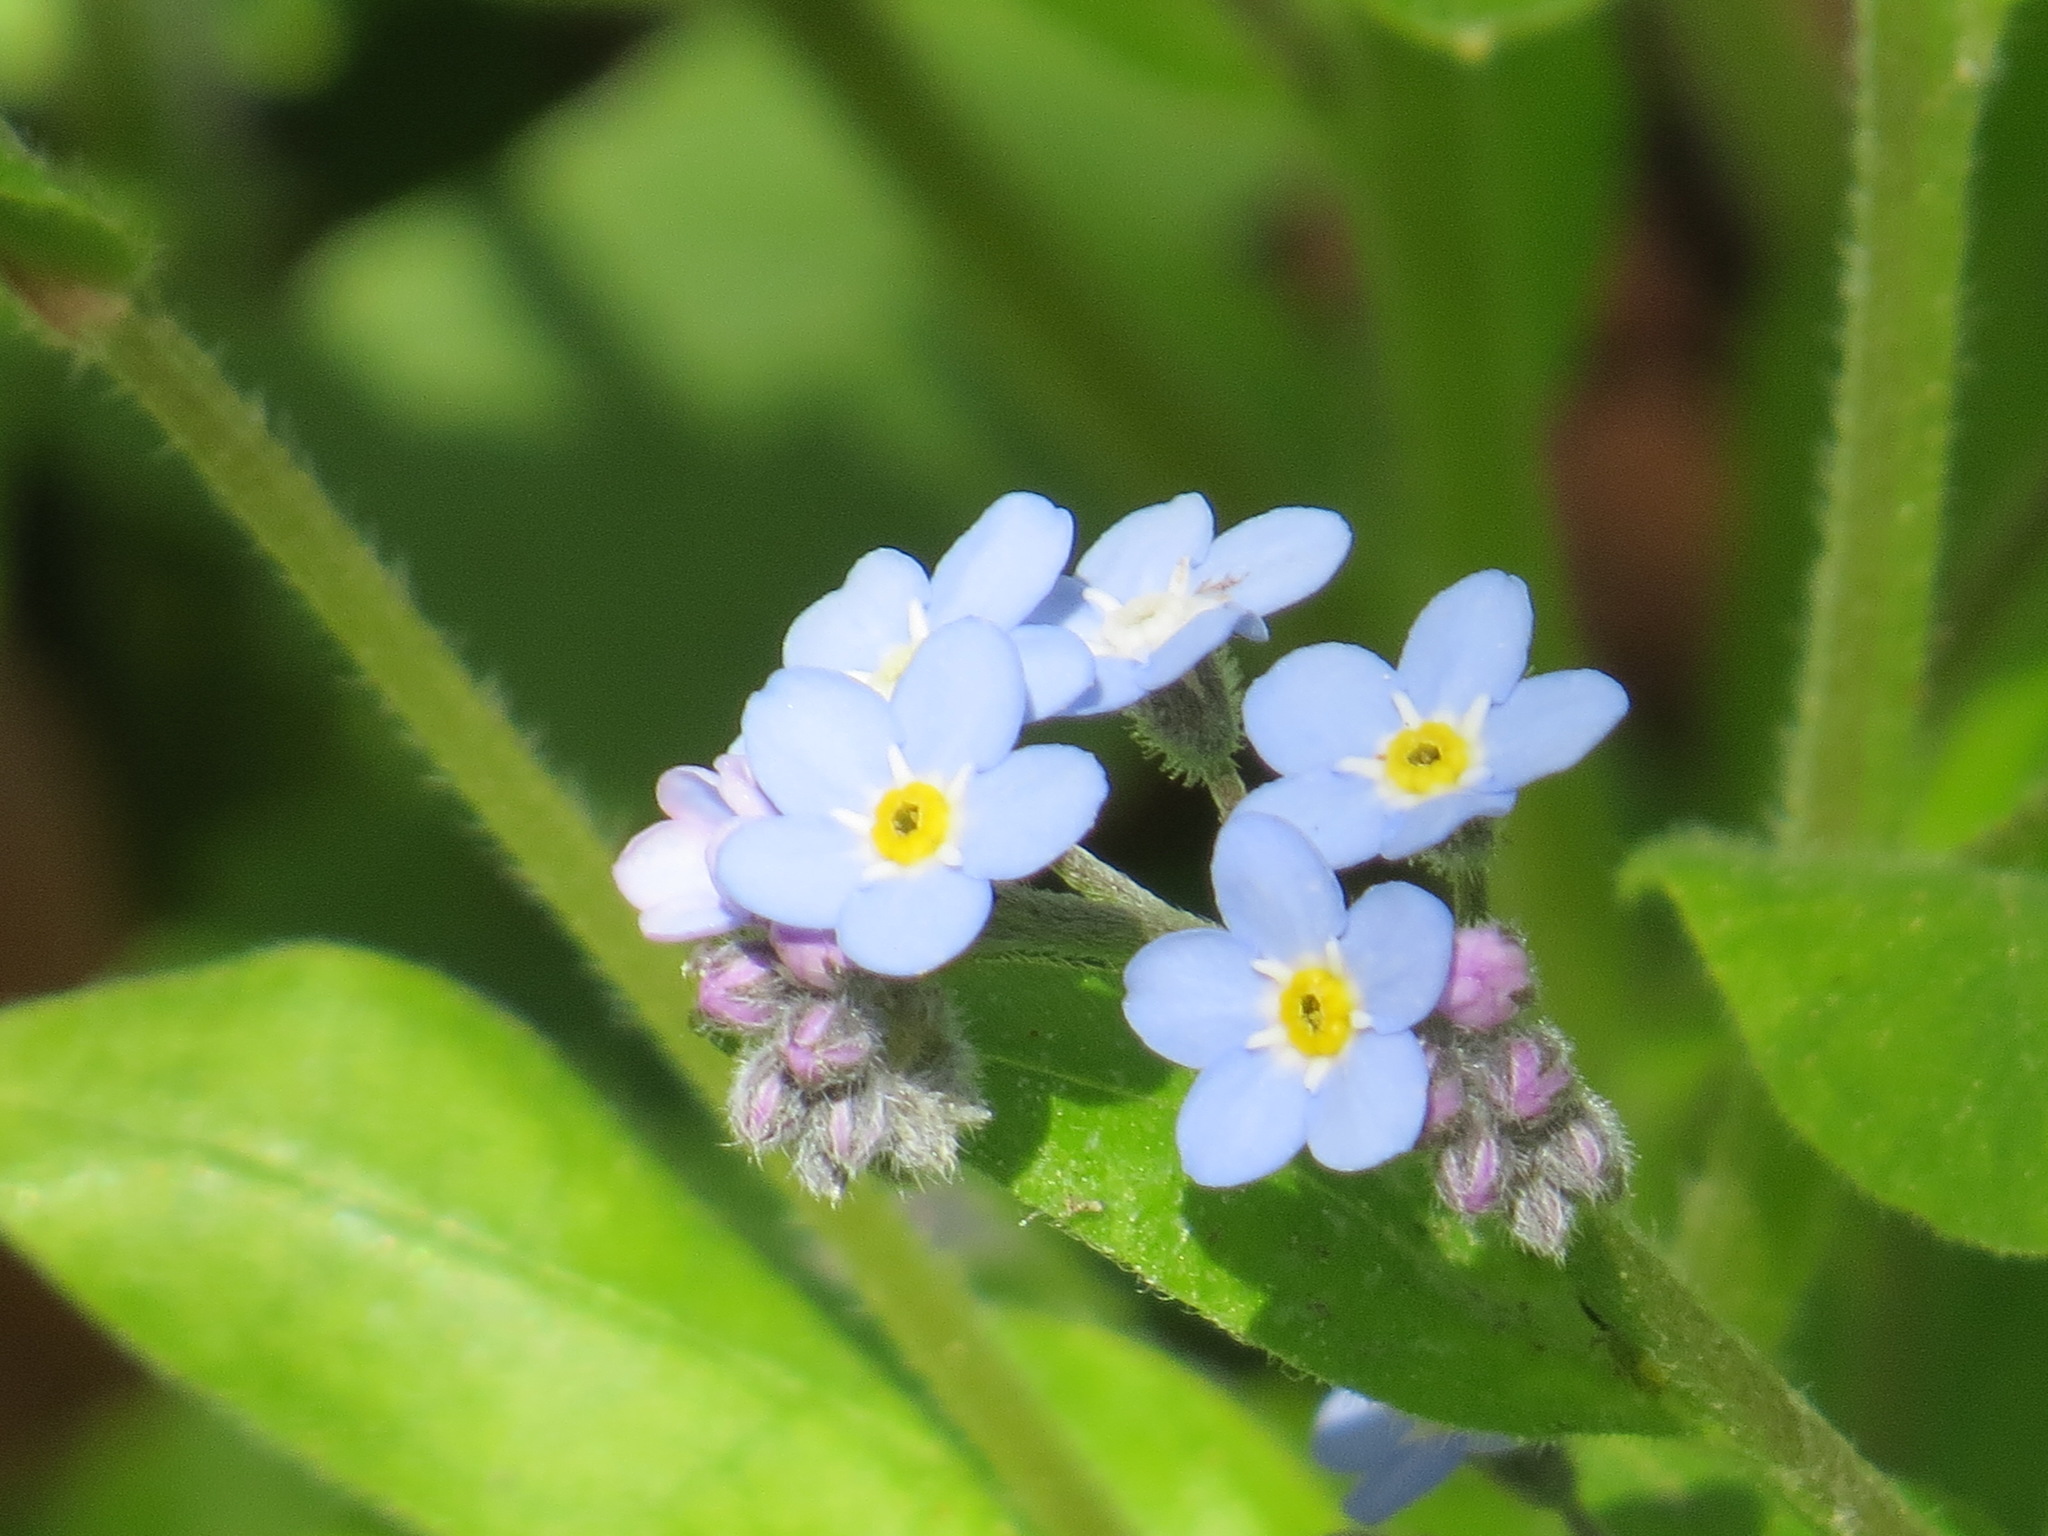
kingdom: Plantae
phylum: Tracheophyta
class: Magnoliopsida
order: Boraginales
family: Boraginaceae
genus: Myosotis
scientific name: Myosotis latifolia
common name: Broadleaf forget-me-not
